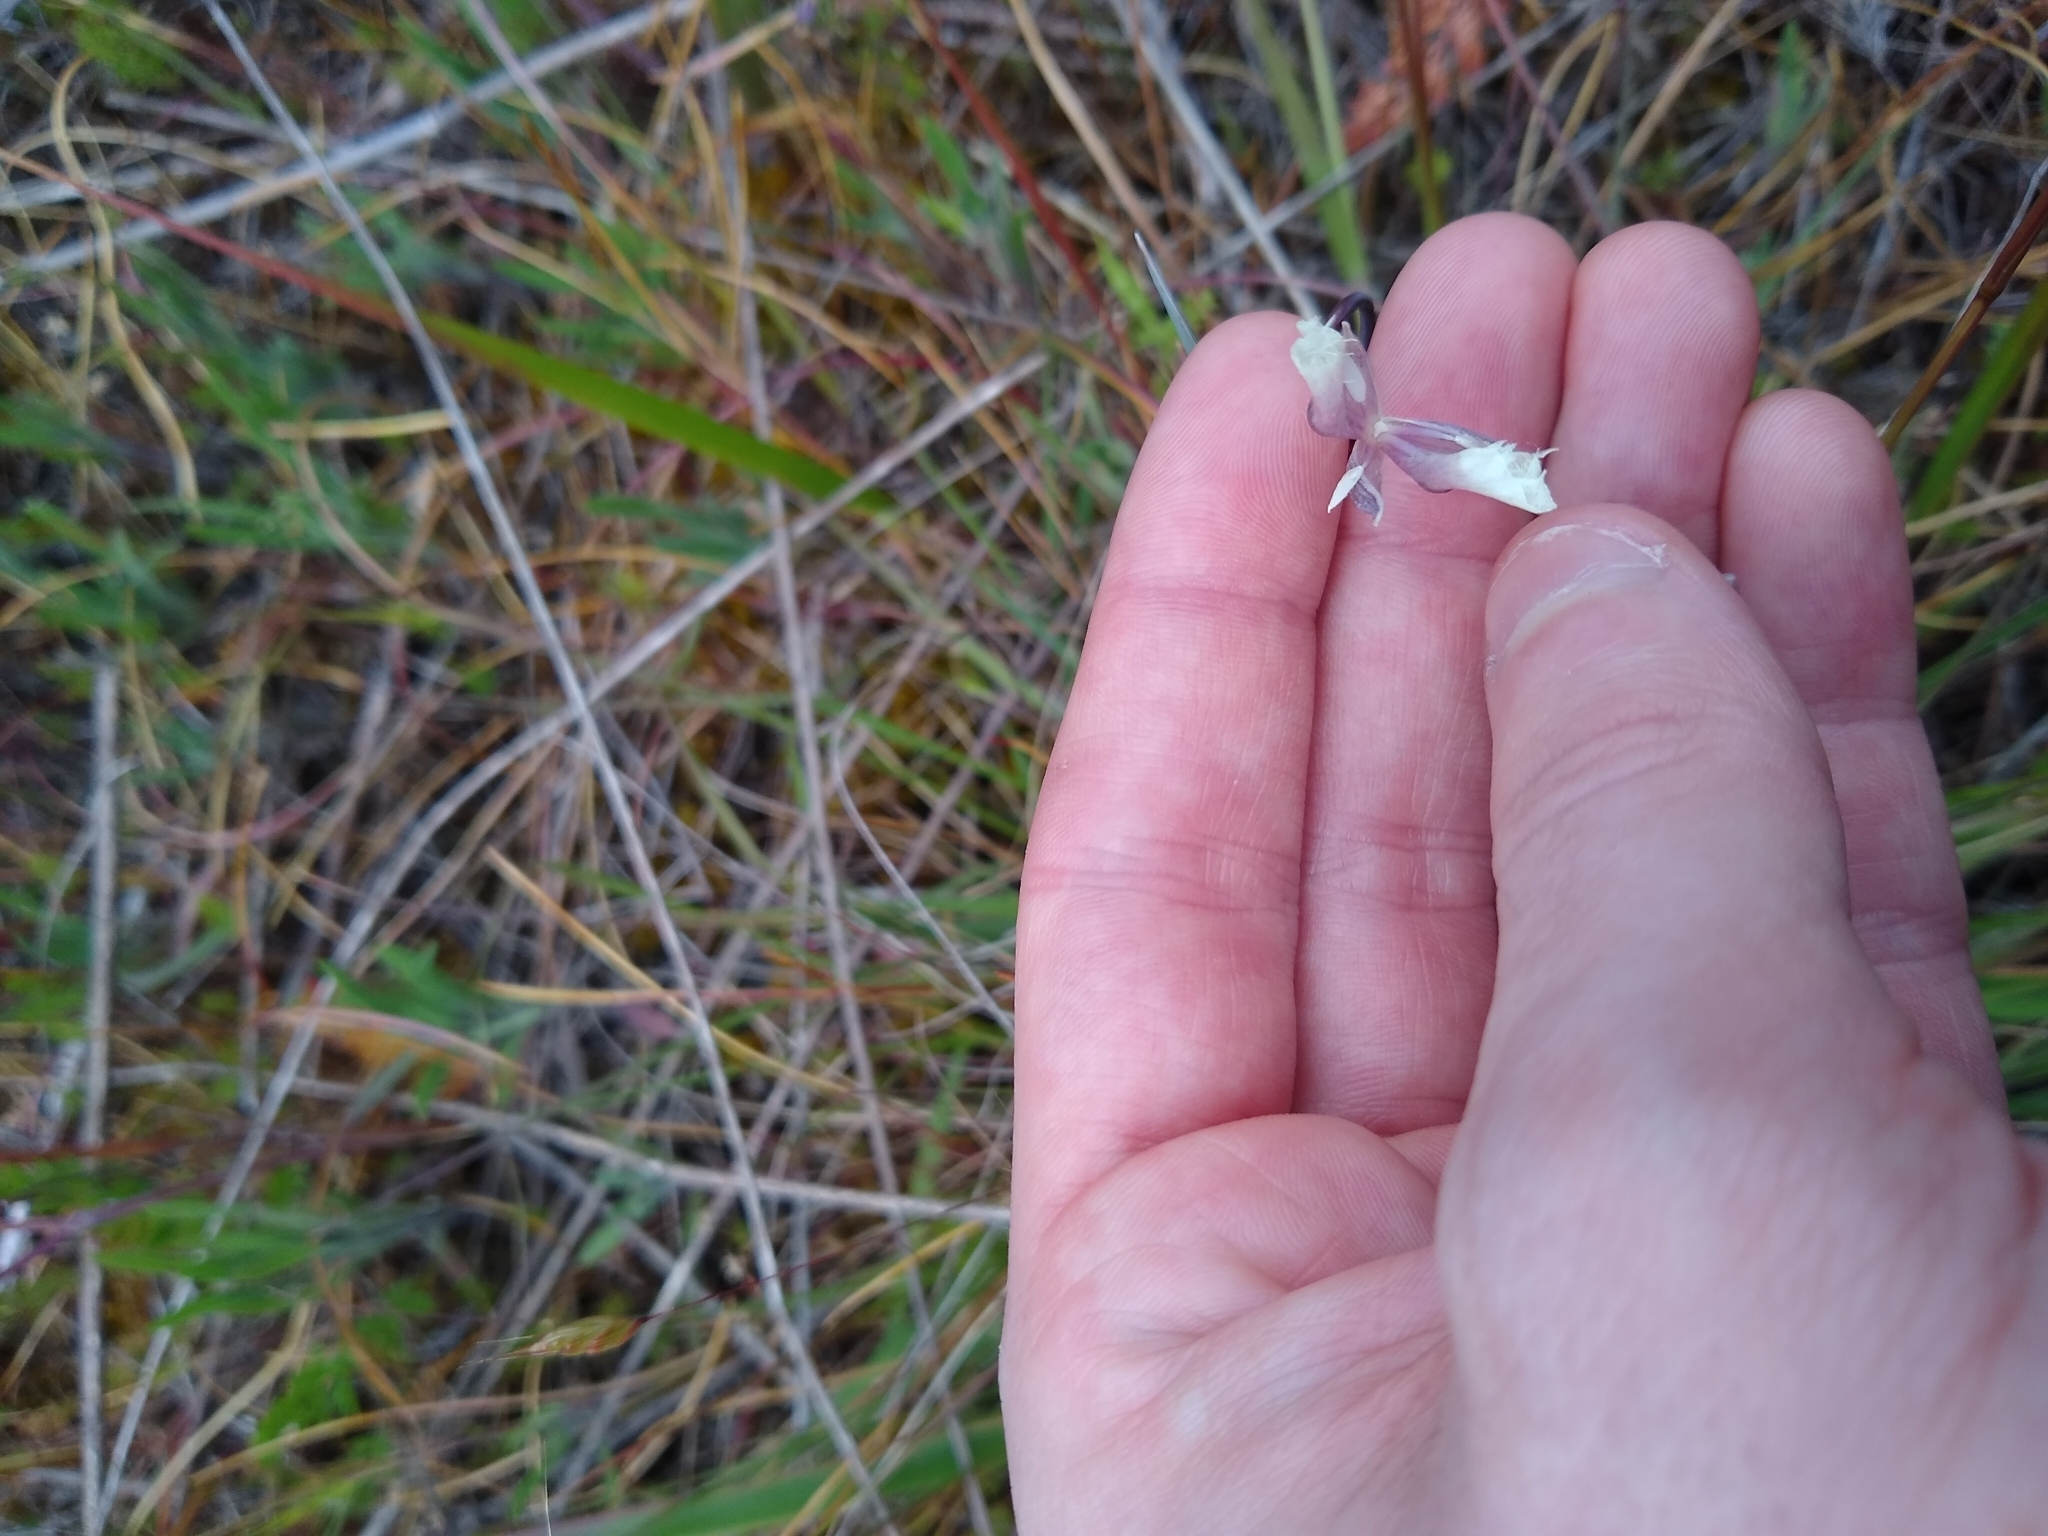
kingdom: Plantae
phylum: Tracheophyta
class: Liliopsida
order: Liliales
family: Liliaceae
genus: Calochortus
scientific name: Calochortus tolmiei
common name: Pussy-ears
